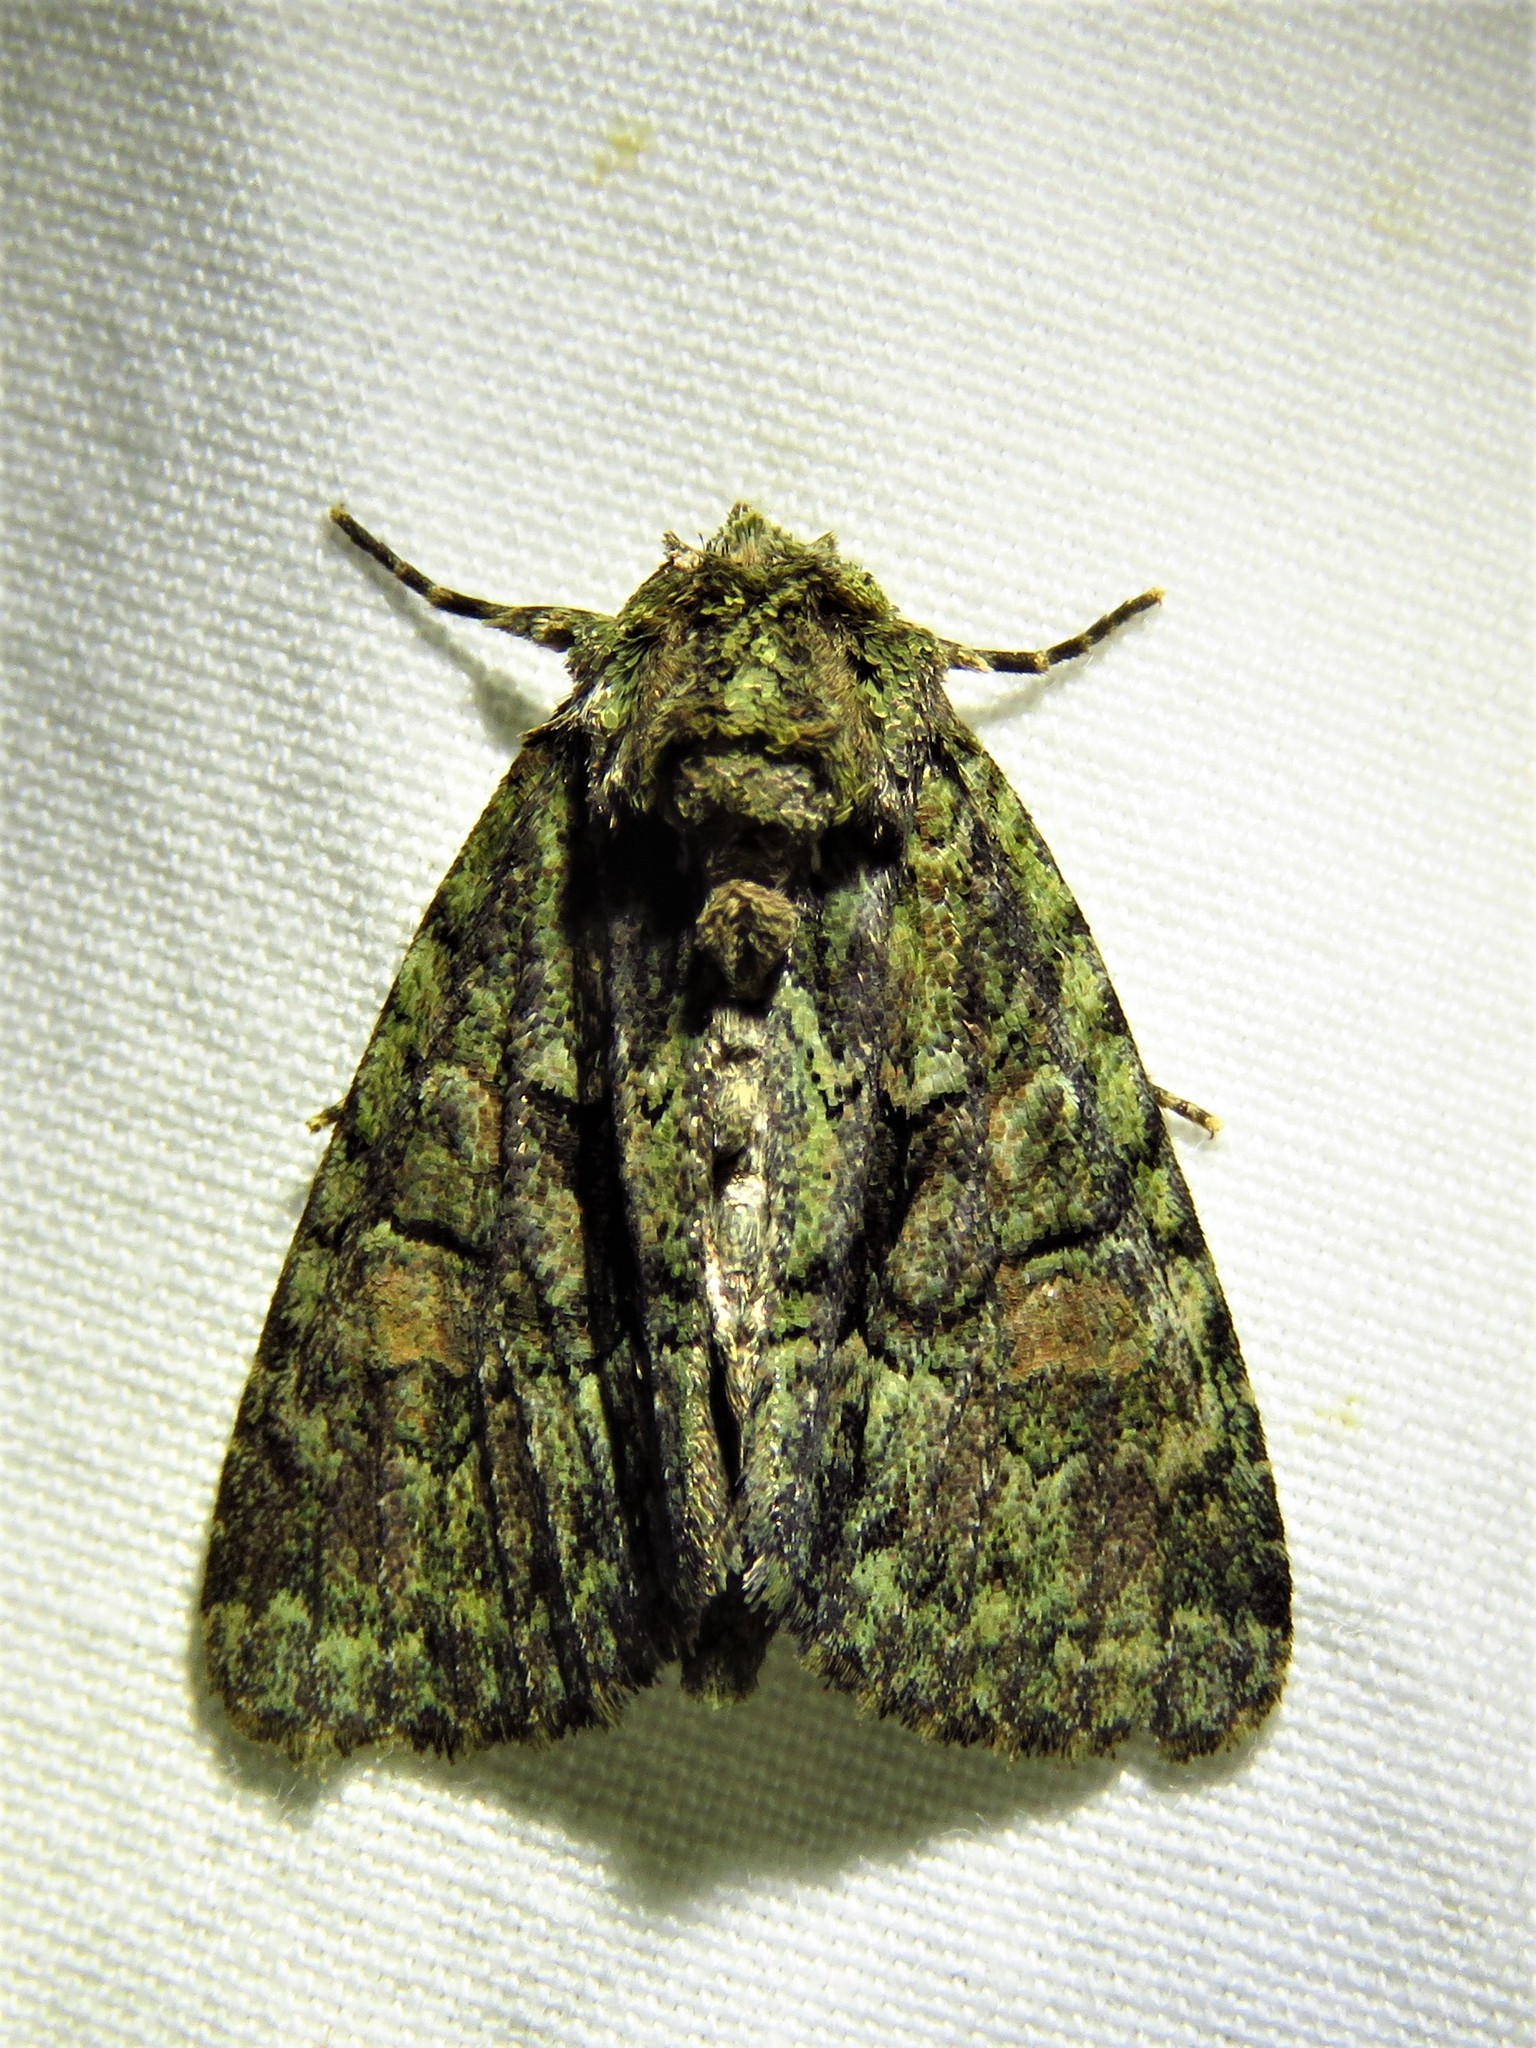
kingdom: Animalia
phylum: Arthropoda
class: Insecta
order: Lepidoptera
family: Noctuidae
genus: Phosphila
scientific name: Phosphila miselioides
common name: Spotted phosphila moth
